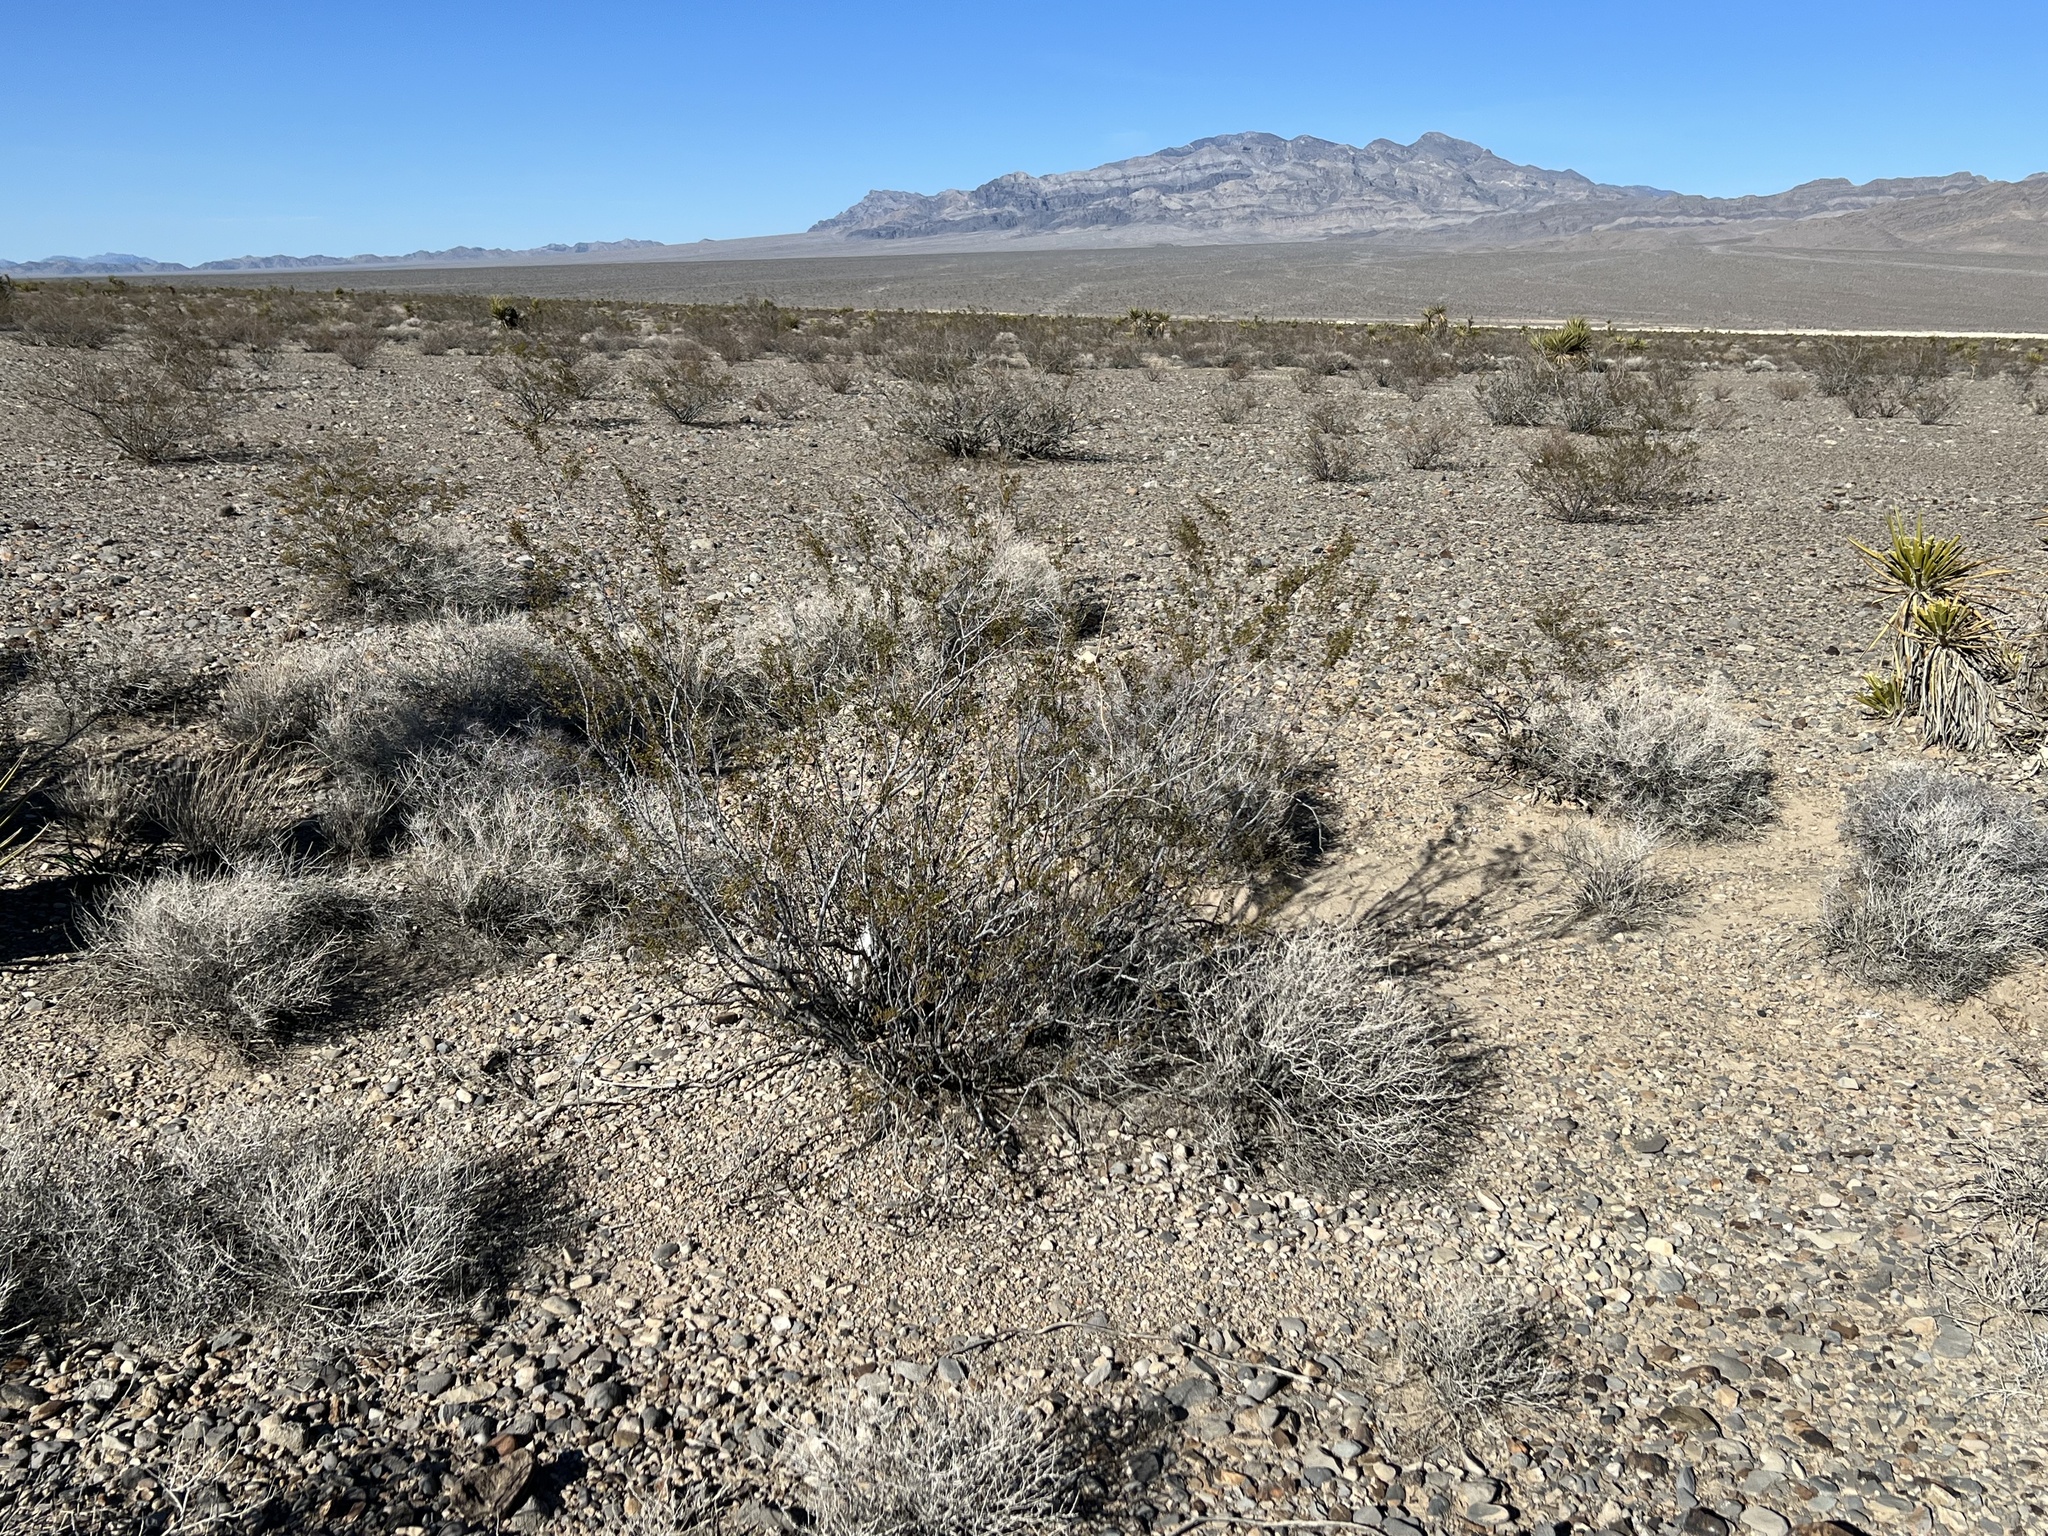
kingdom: Plantae
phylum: Tracheophyta
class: Magnoliopsida
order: Zygophyllales
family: Zygophyllaceae
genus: Larrea
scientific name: Larrea tridentata
